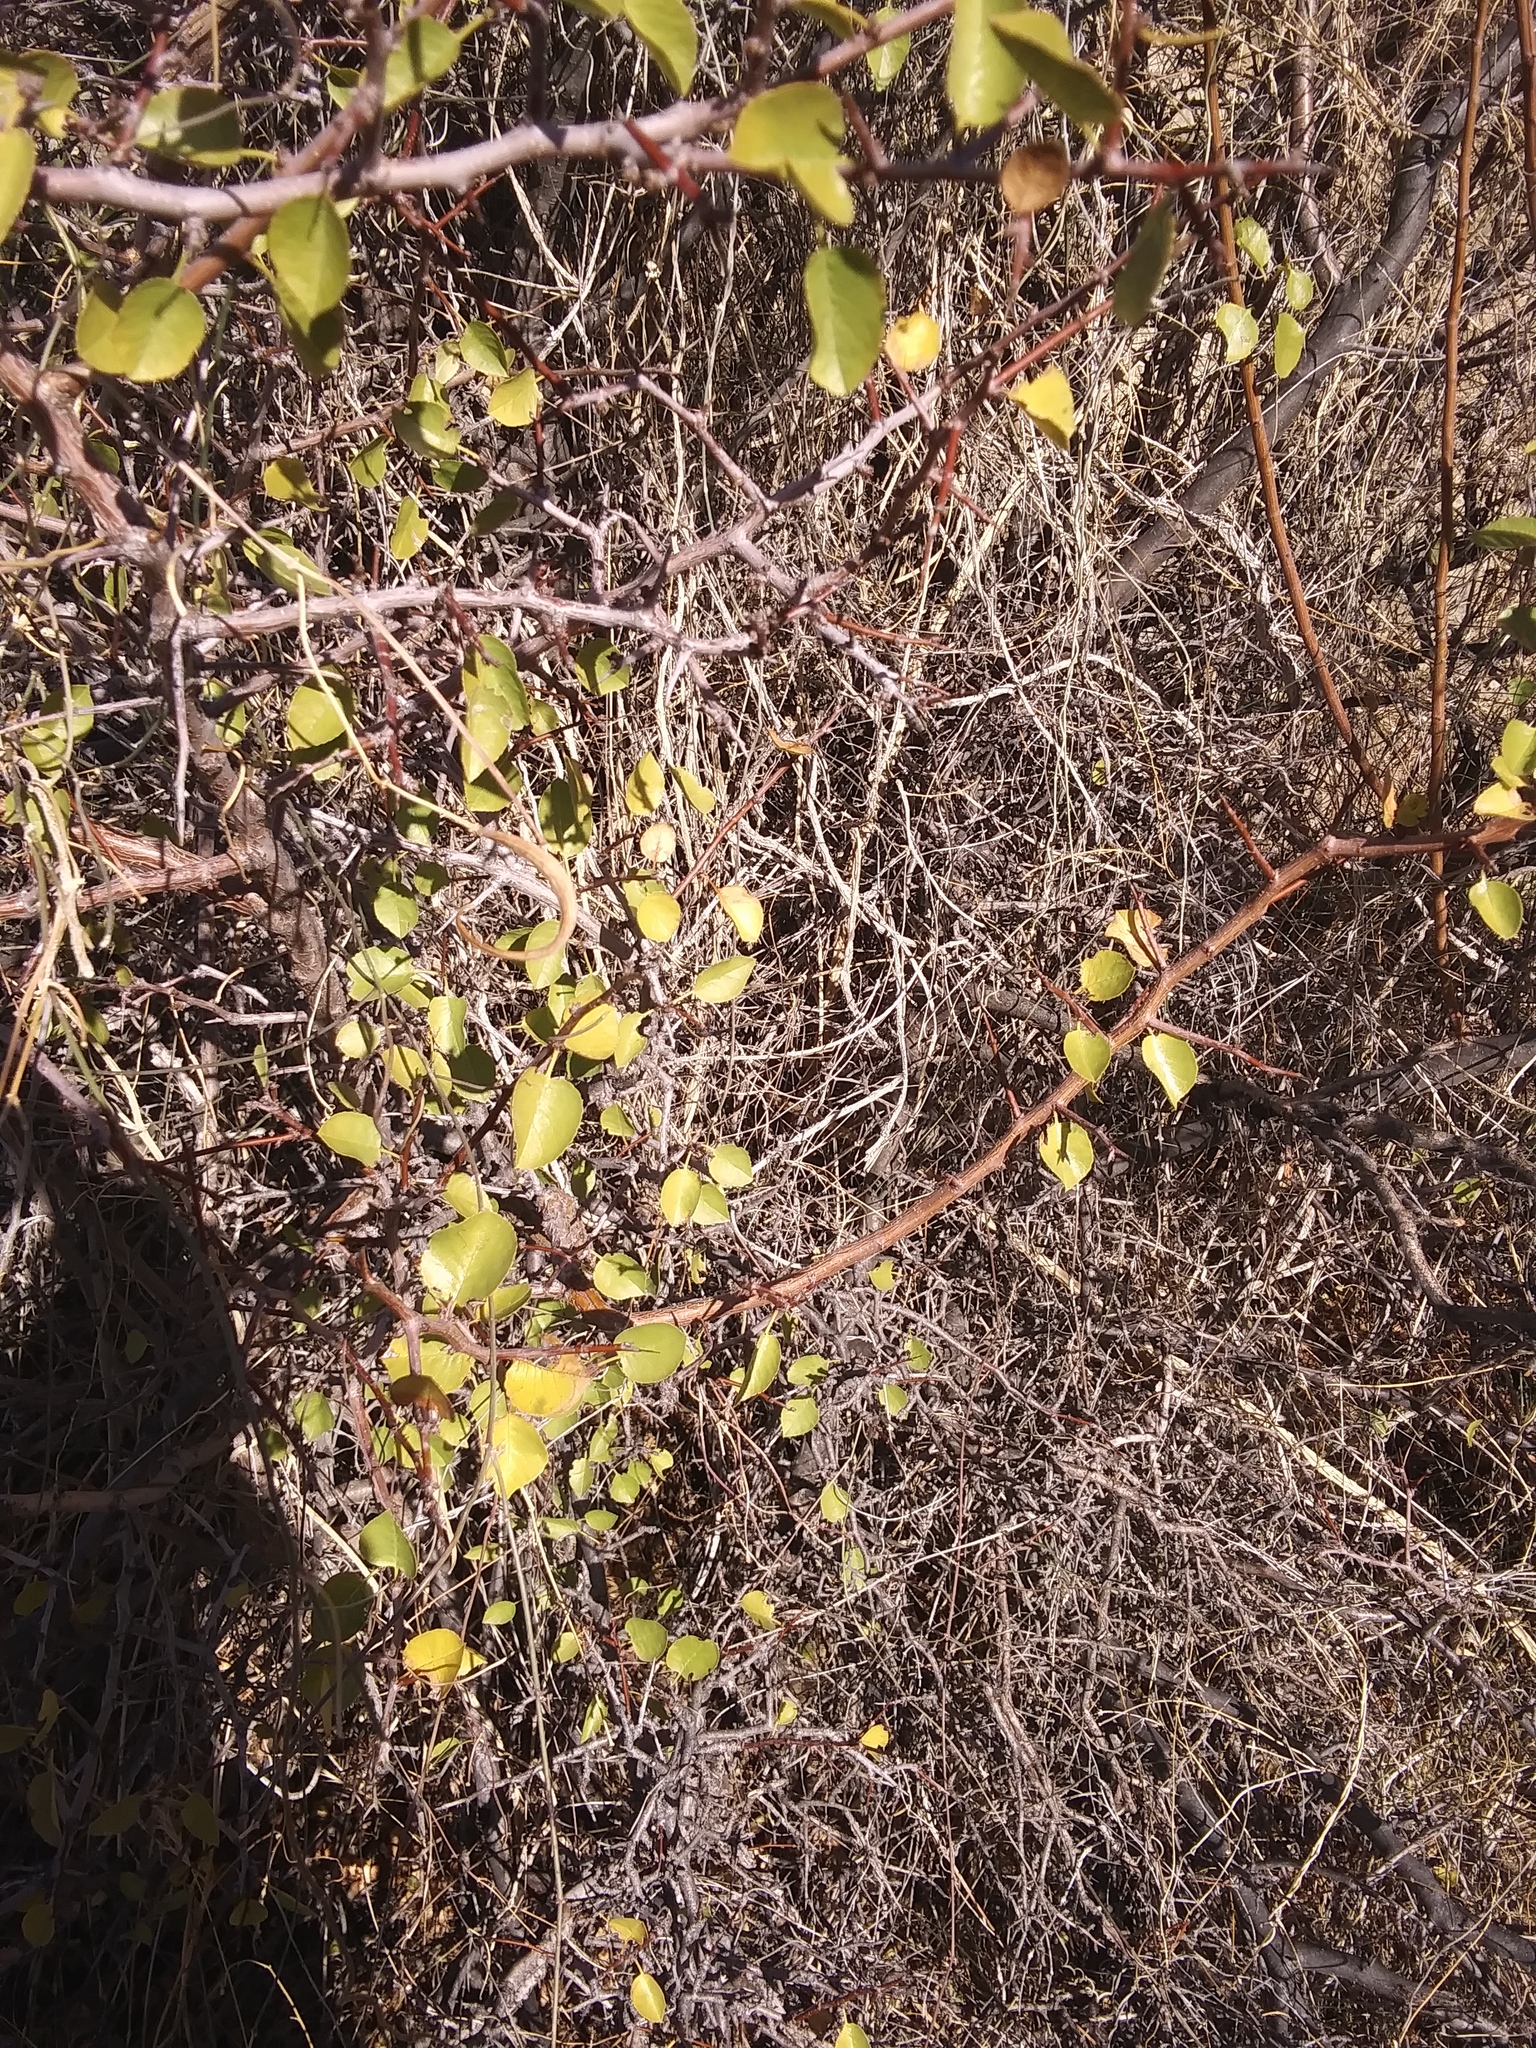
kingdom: Plantae
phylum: Tracheophyta
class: Magnoliopsida
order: Rosales
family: Rosaceae
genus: Prunus
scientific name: Prunus fremontii
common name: Desert apricot
